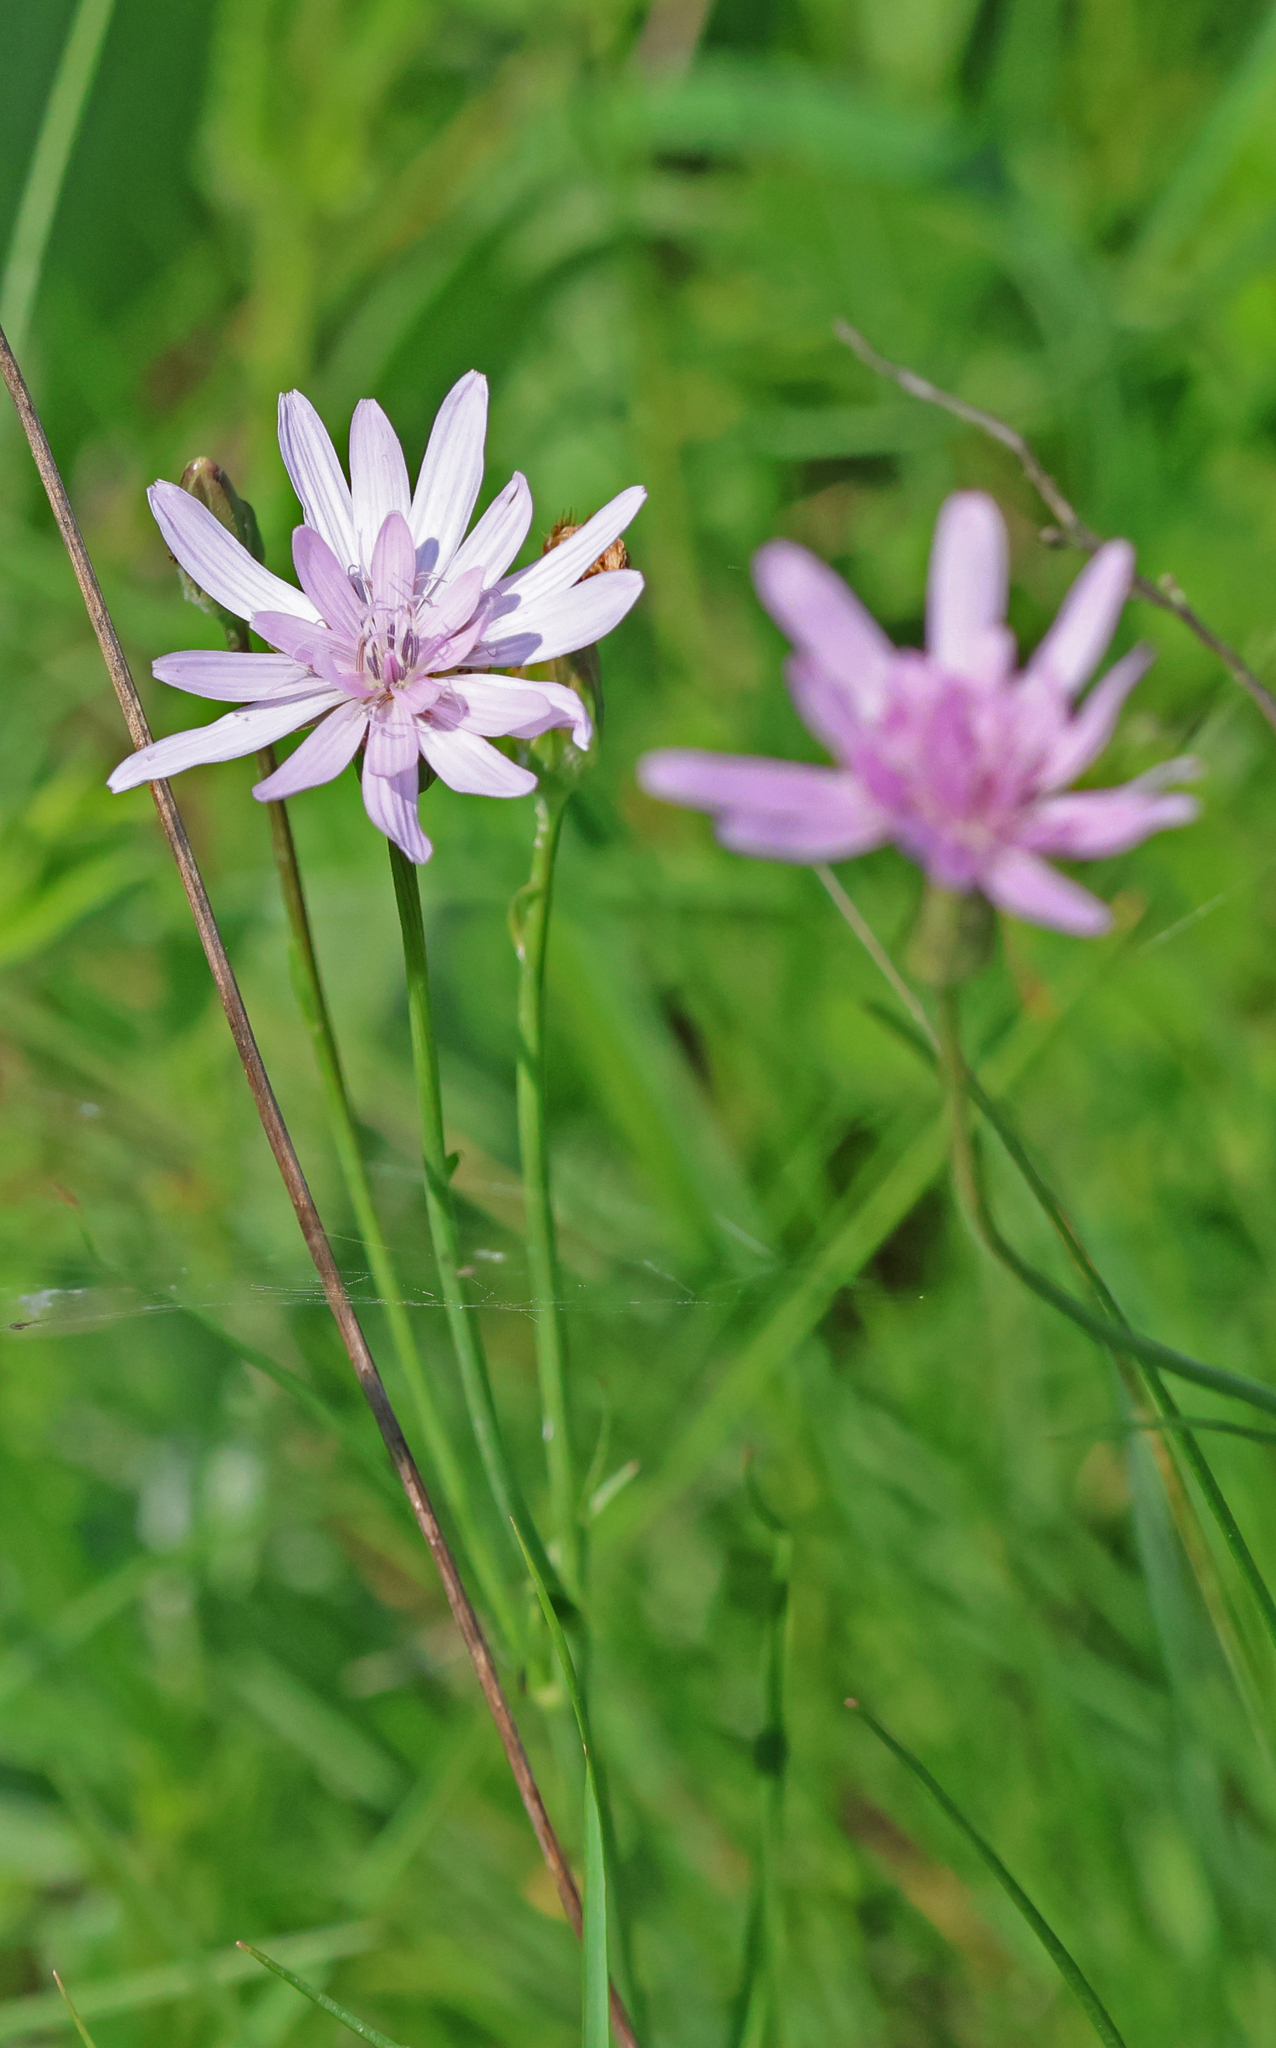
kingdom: Plantae
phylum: Tracheophyta
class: Magnoliopsida
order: Asterales
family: Asteraceae
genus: Scorzonera
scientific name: Scorzonera purpurea
